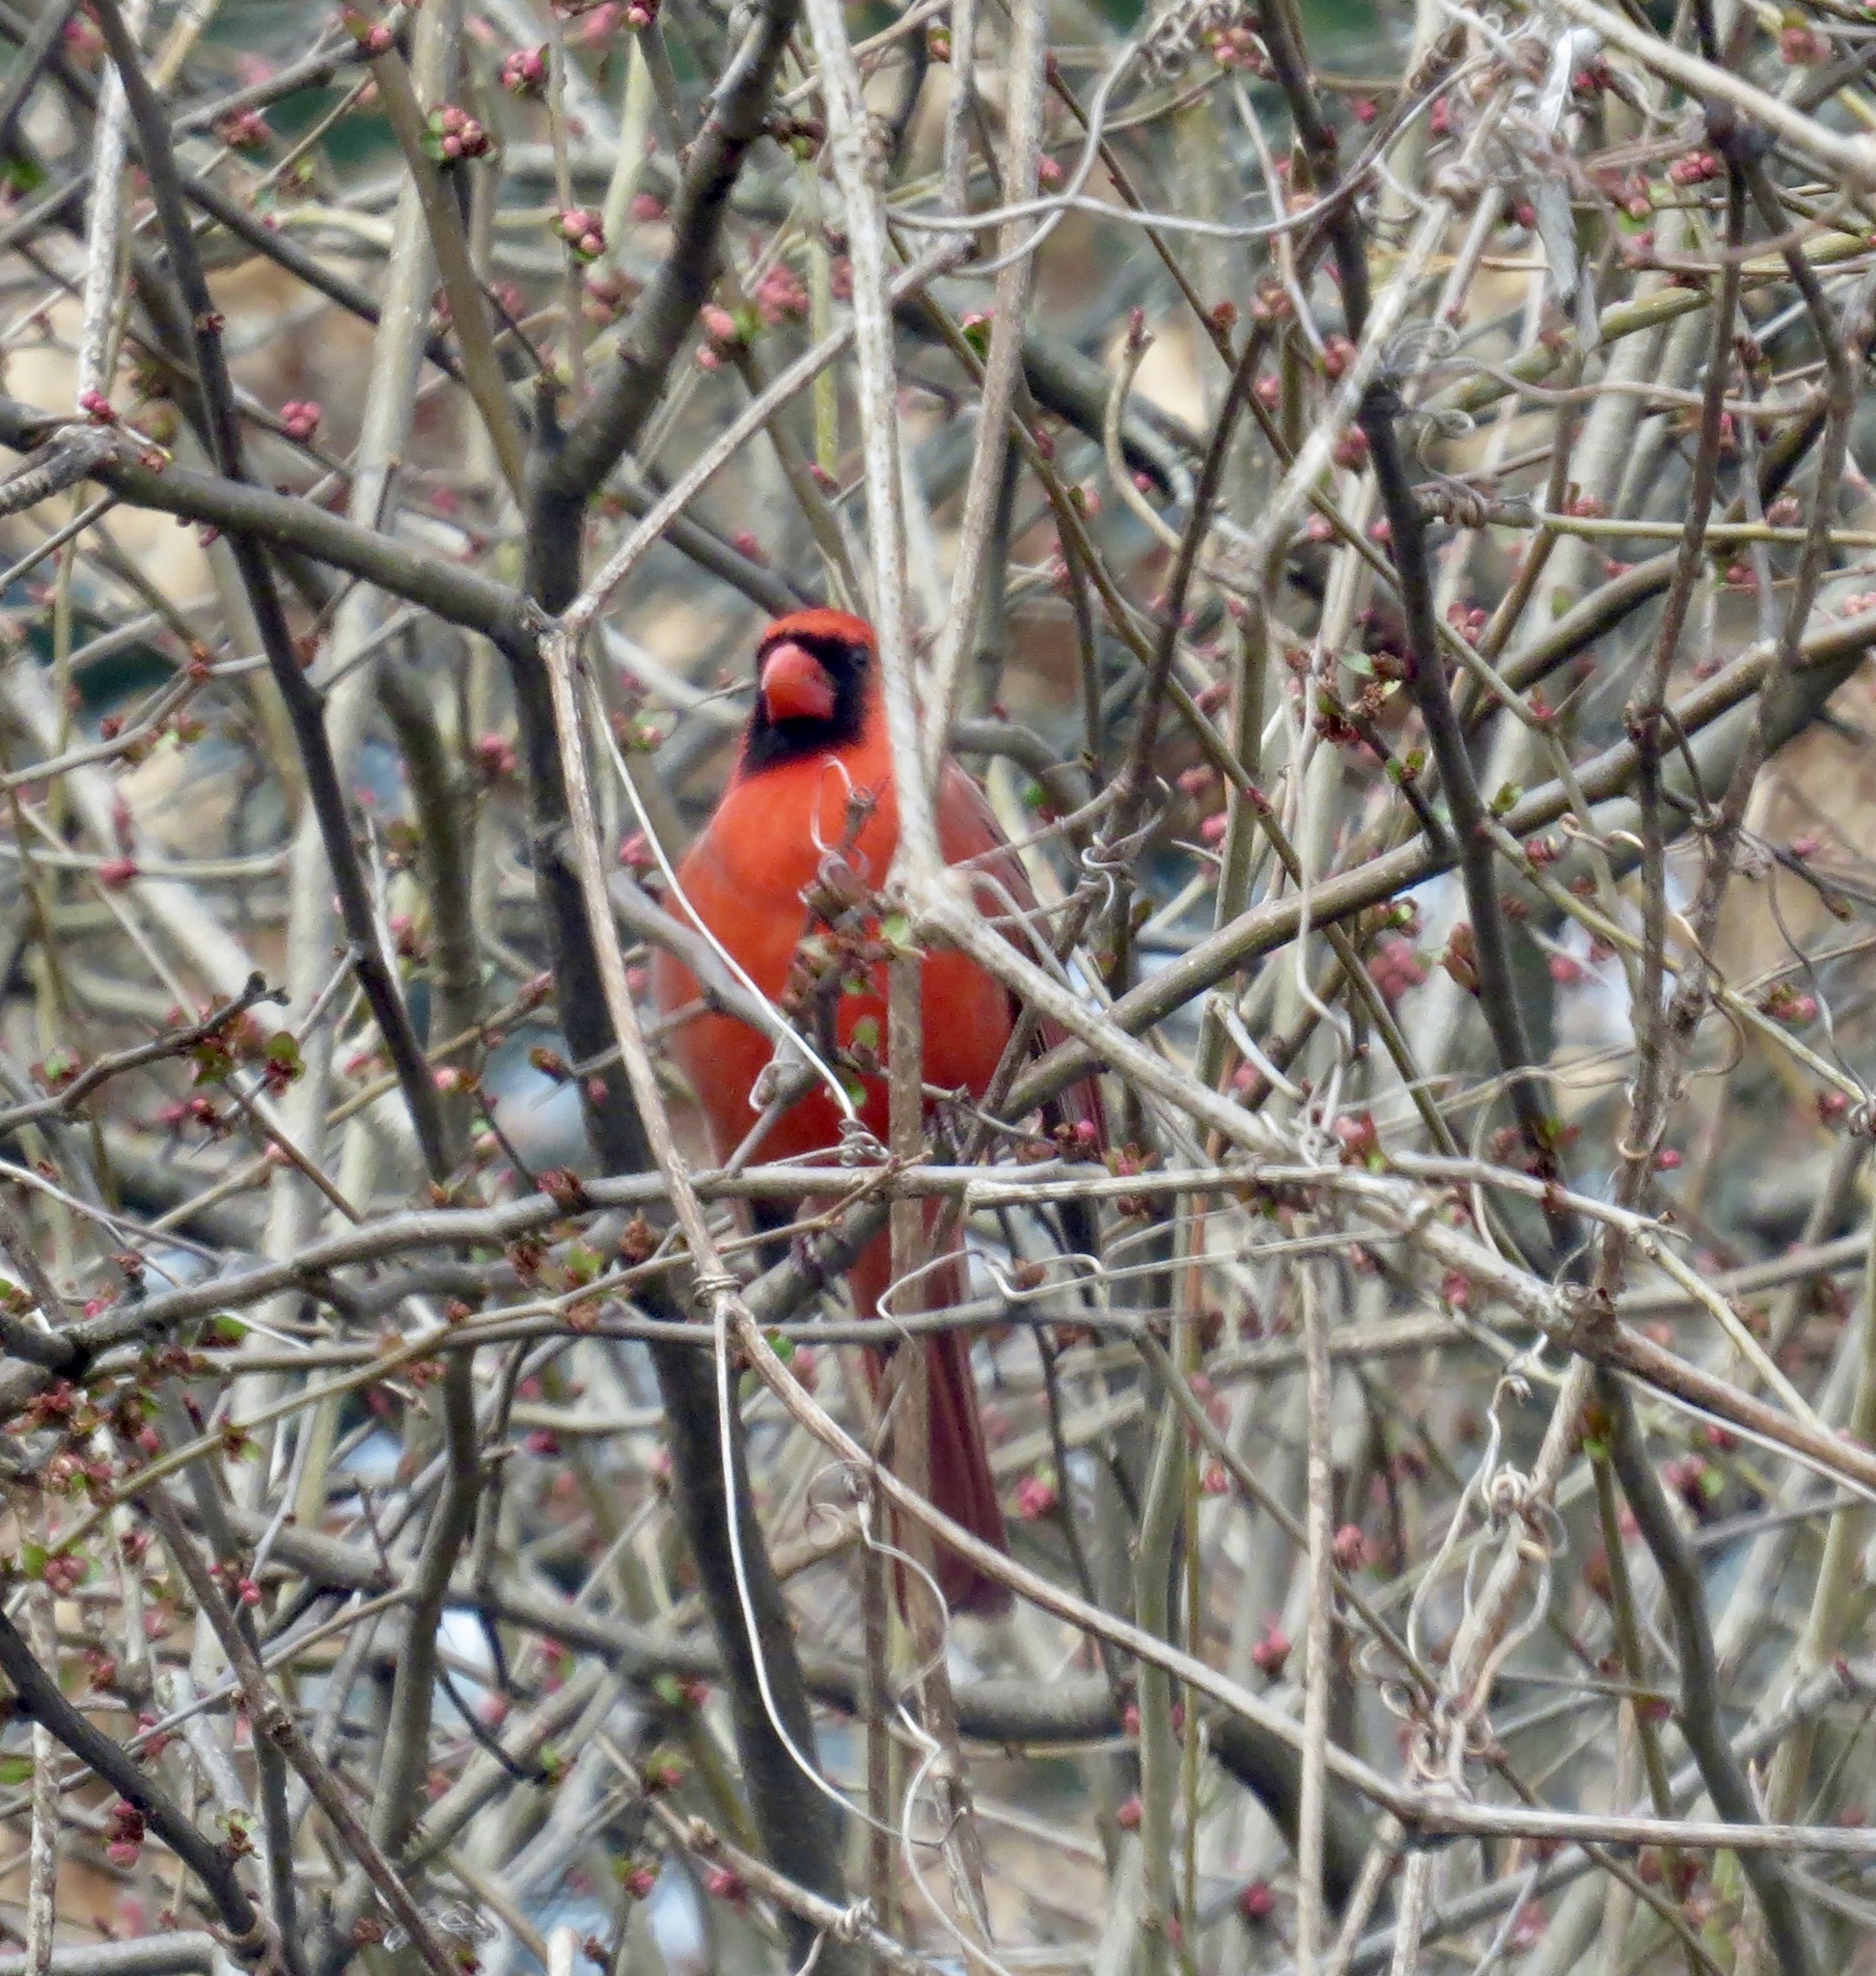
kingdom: Animalia
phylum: Chordata
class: Aves
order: Passeriformes
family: Cardinalidae
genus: Cardinalis
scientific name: Cardinalis cardinalis
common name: Northern cardinal
